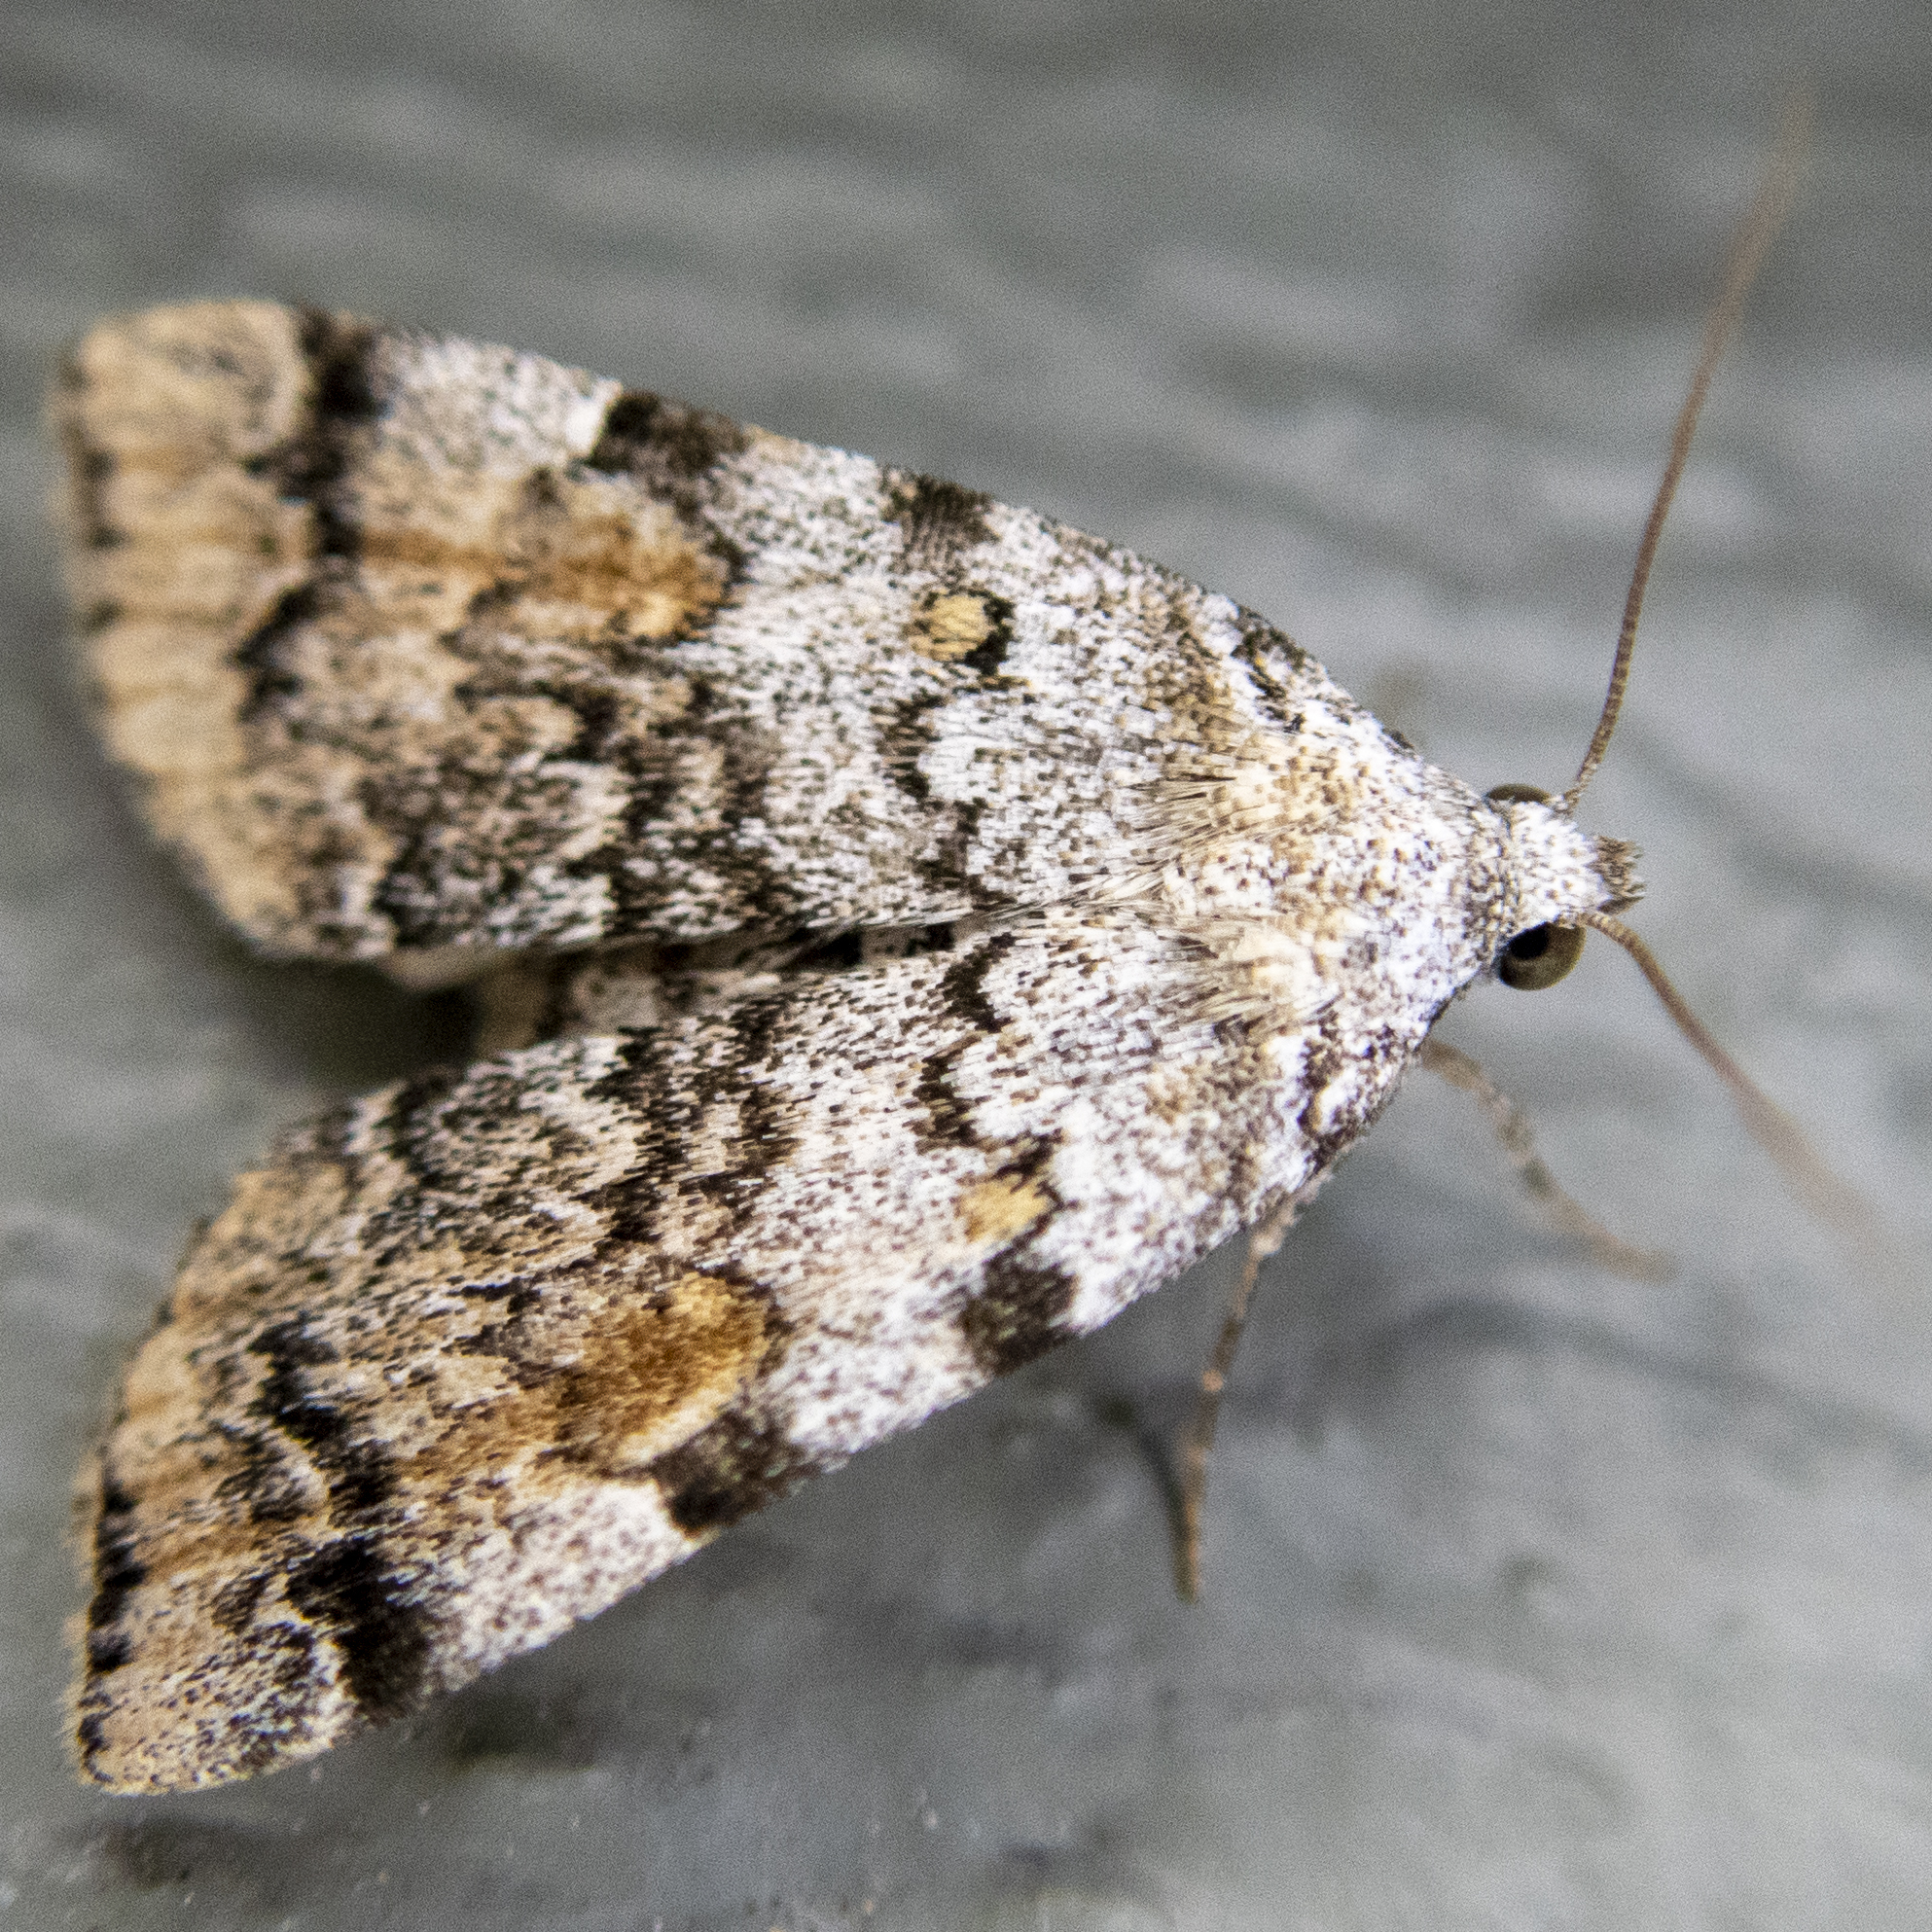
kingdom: Animalia
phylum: Arthropoda
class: Insecta
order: Lepidoptera
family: Erebidae
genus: Idia
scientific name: Idia americalis
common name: American idia moth
